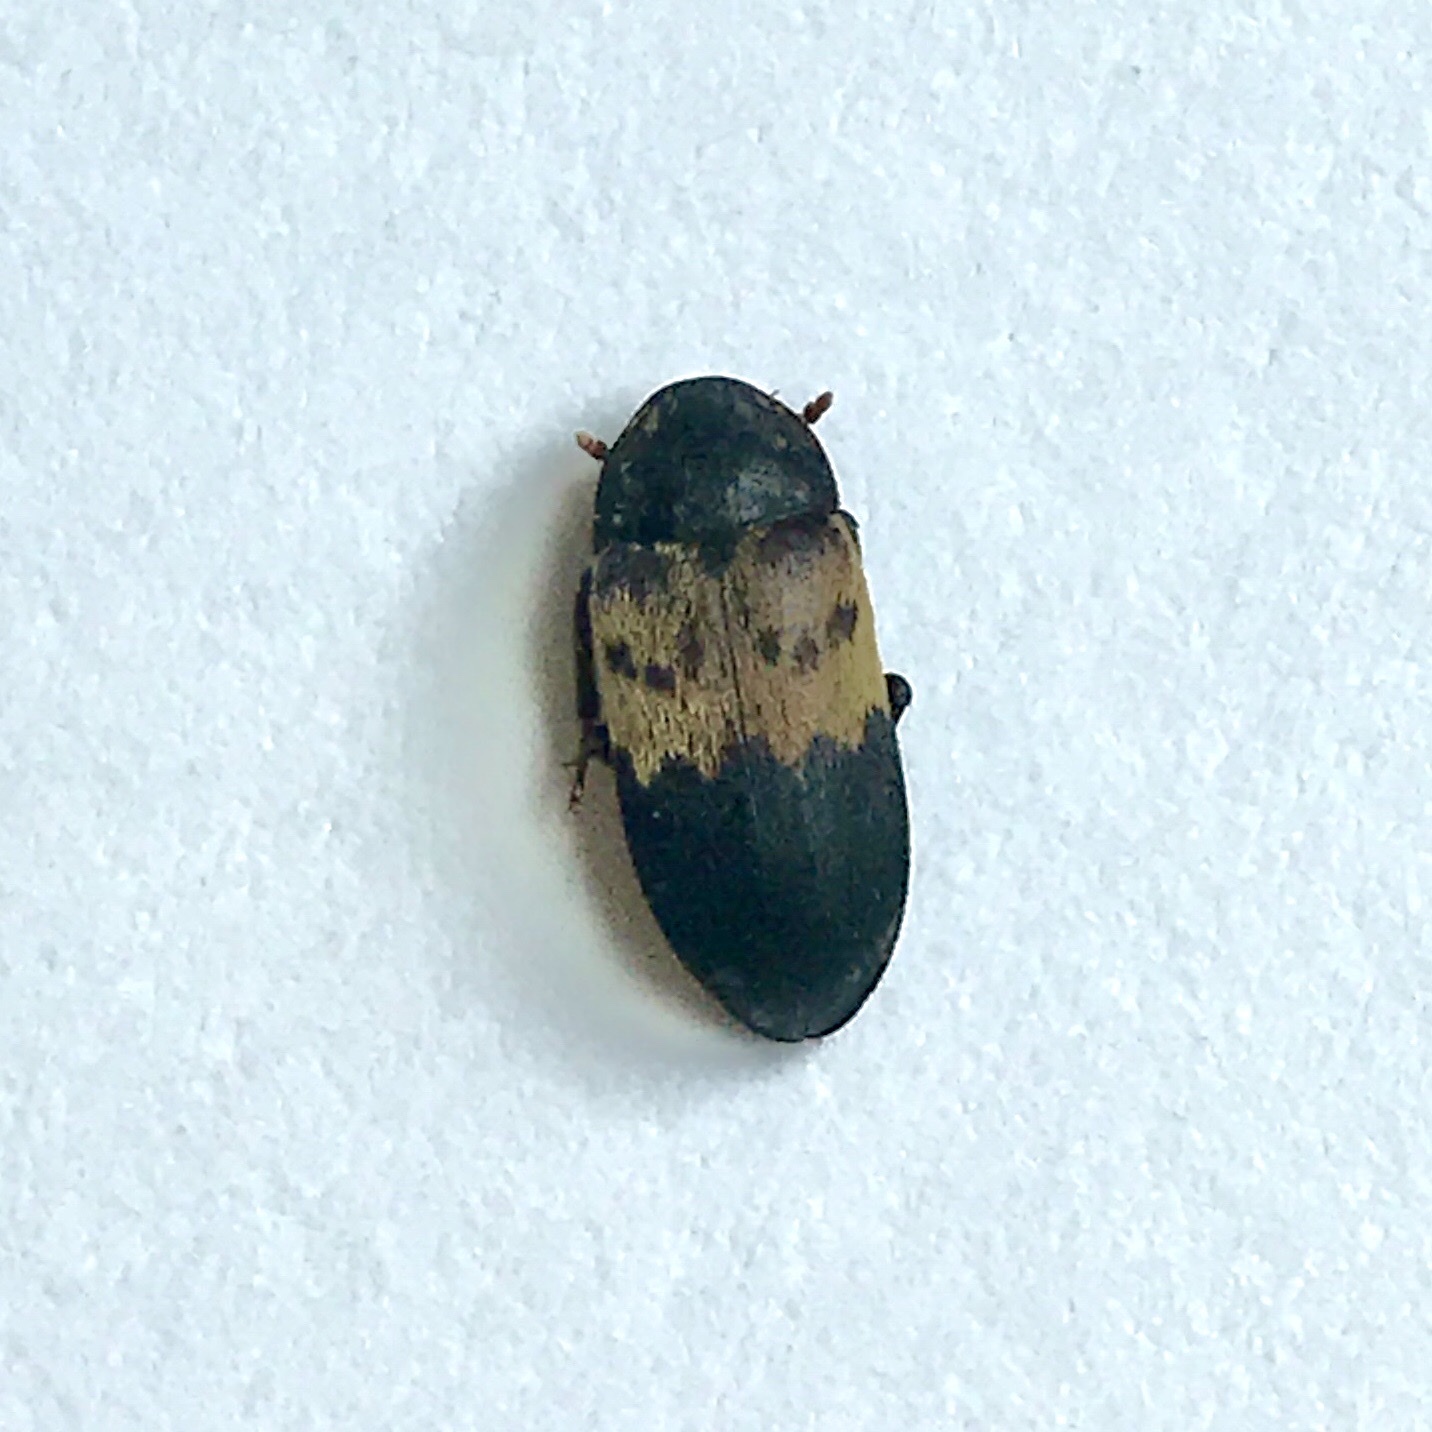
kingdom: Animalia
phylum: Arthropoda
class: Insecta
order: Coleoptera
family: Dermestidae
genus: Dermestes
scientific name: Dermestes lardarius
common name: Larder beetle
